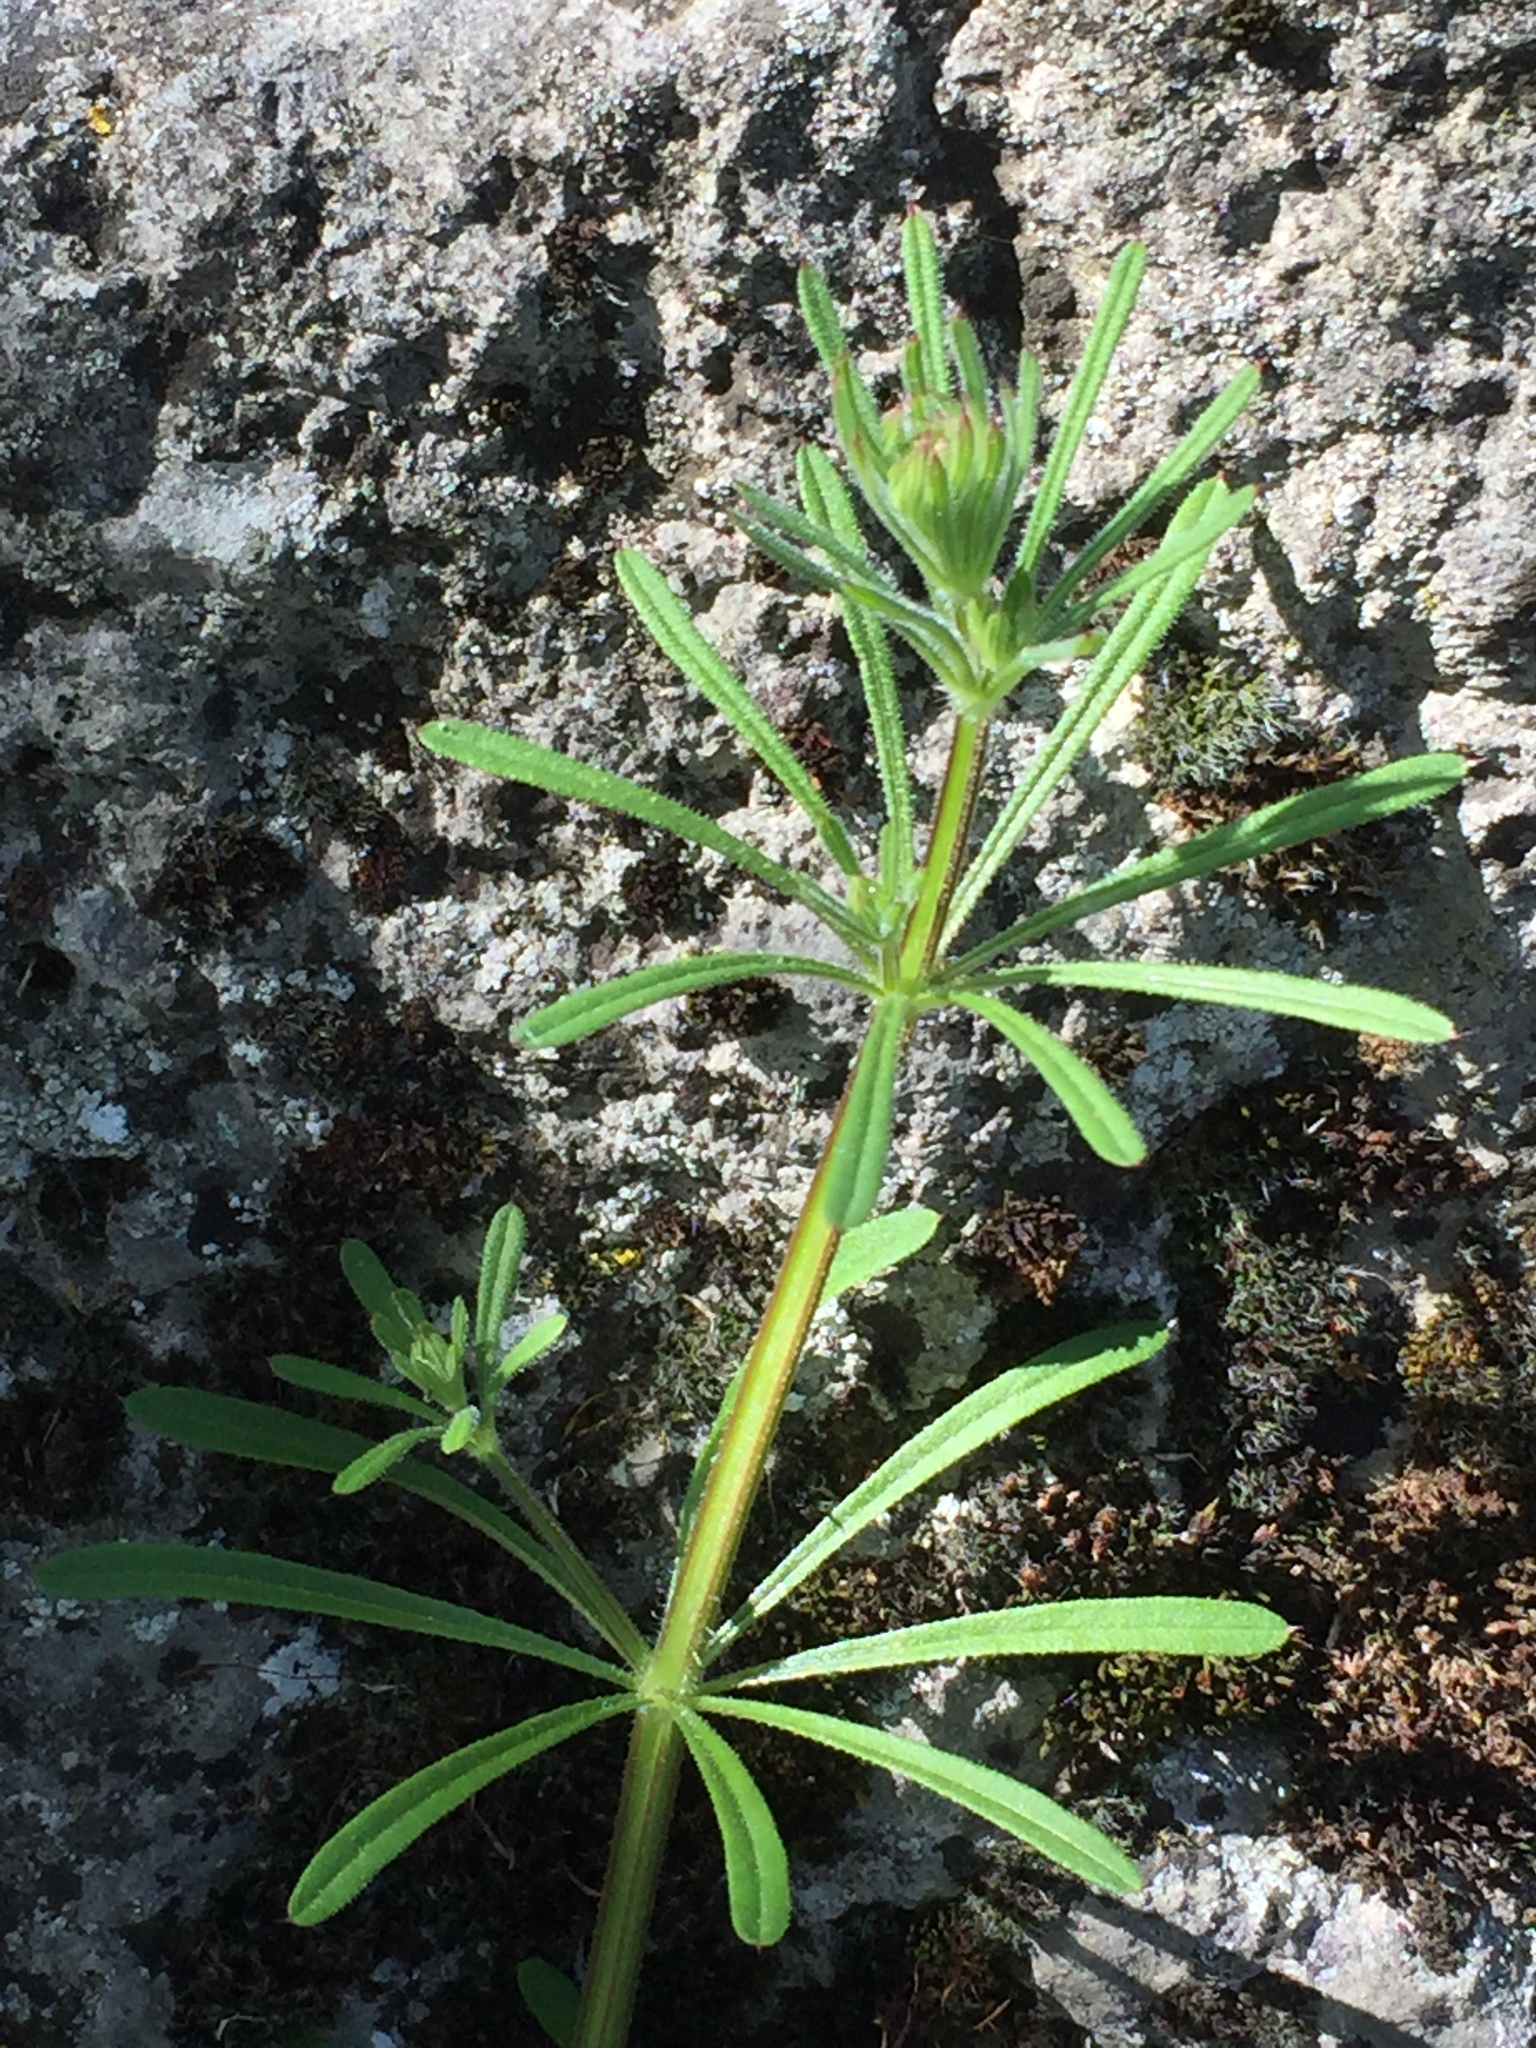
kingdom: Plantae
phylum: Tracheophyta
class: Magnoliopsida
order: Gentianales
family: Rubiaceae
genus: Galium
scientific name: Galium aparine
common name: Cleavers
